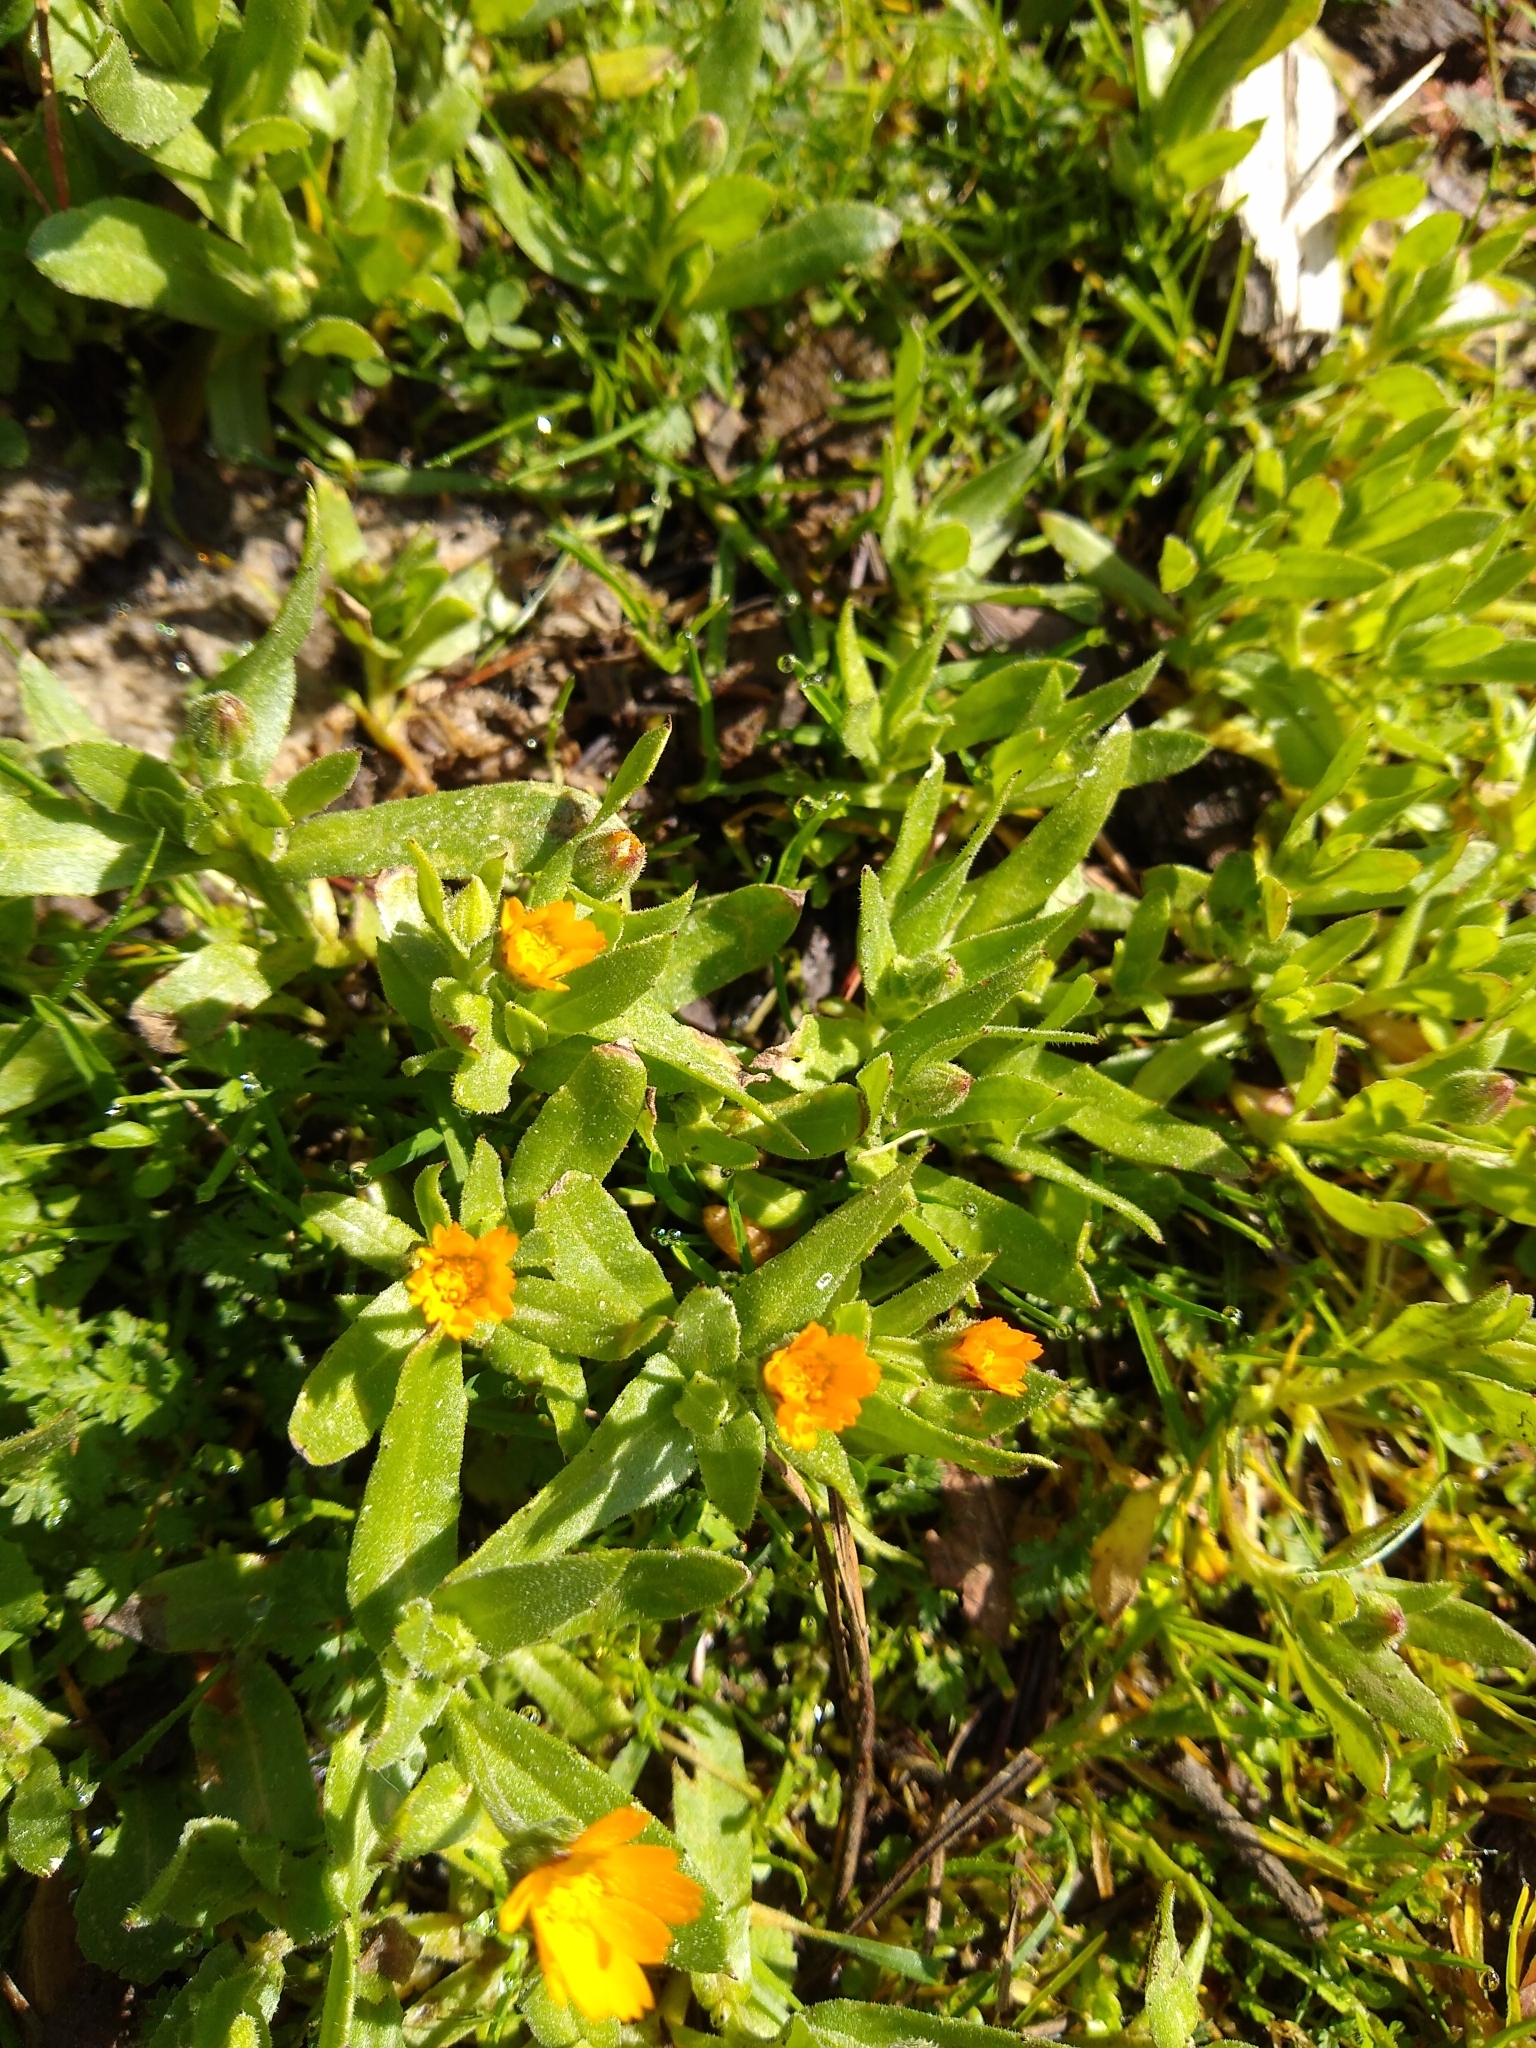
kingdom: Plantae
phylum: Tracheophyta
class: Magnoliopsida
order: Asterales
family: Asteraceae
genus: Calendula
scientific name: Calendula arvensis
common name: Field marigold
